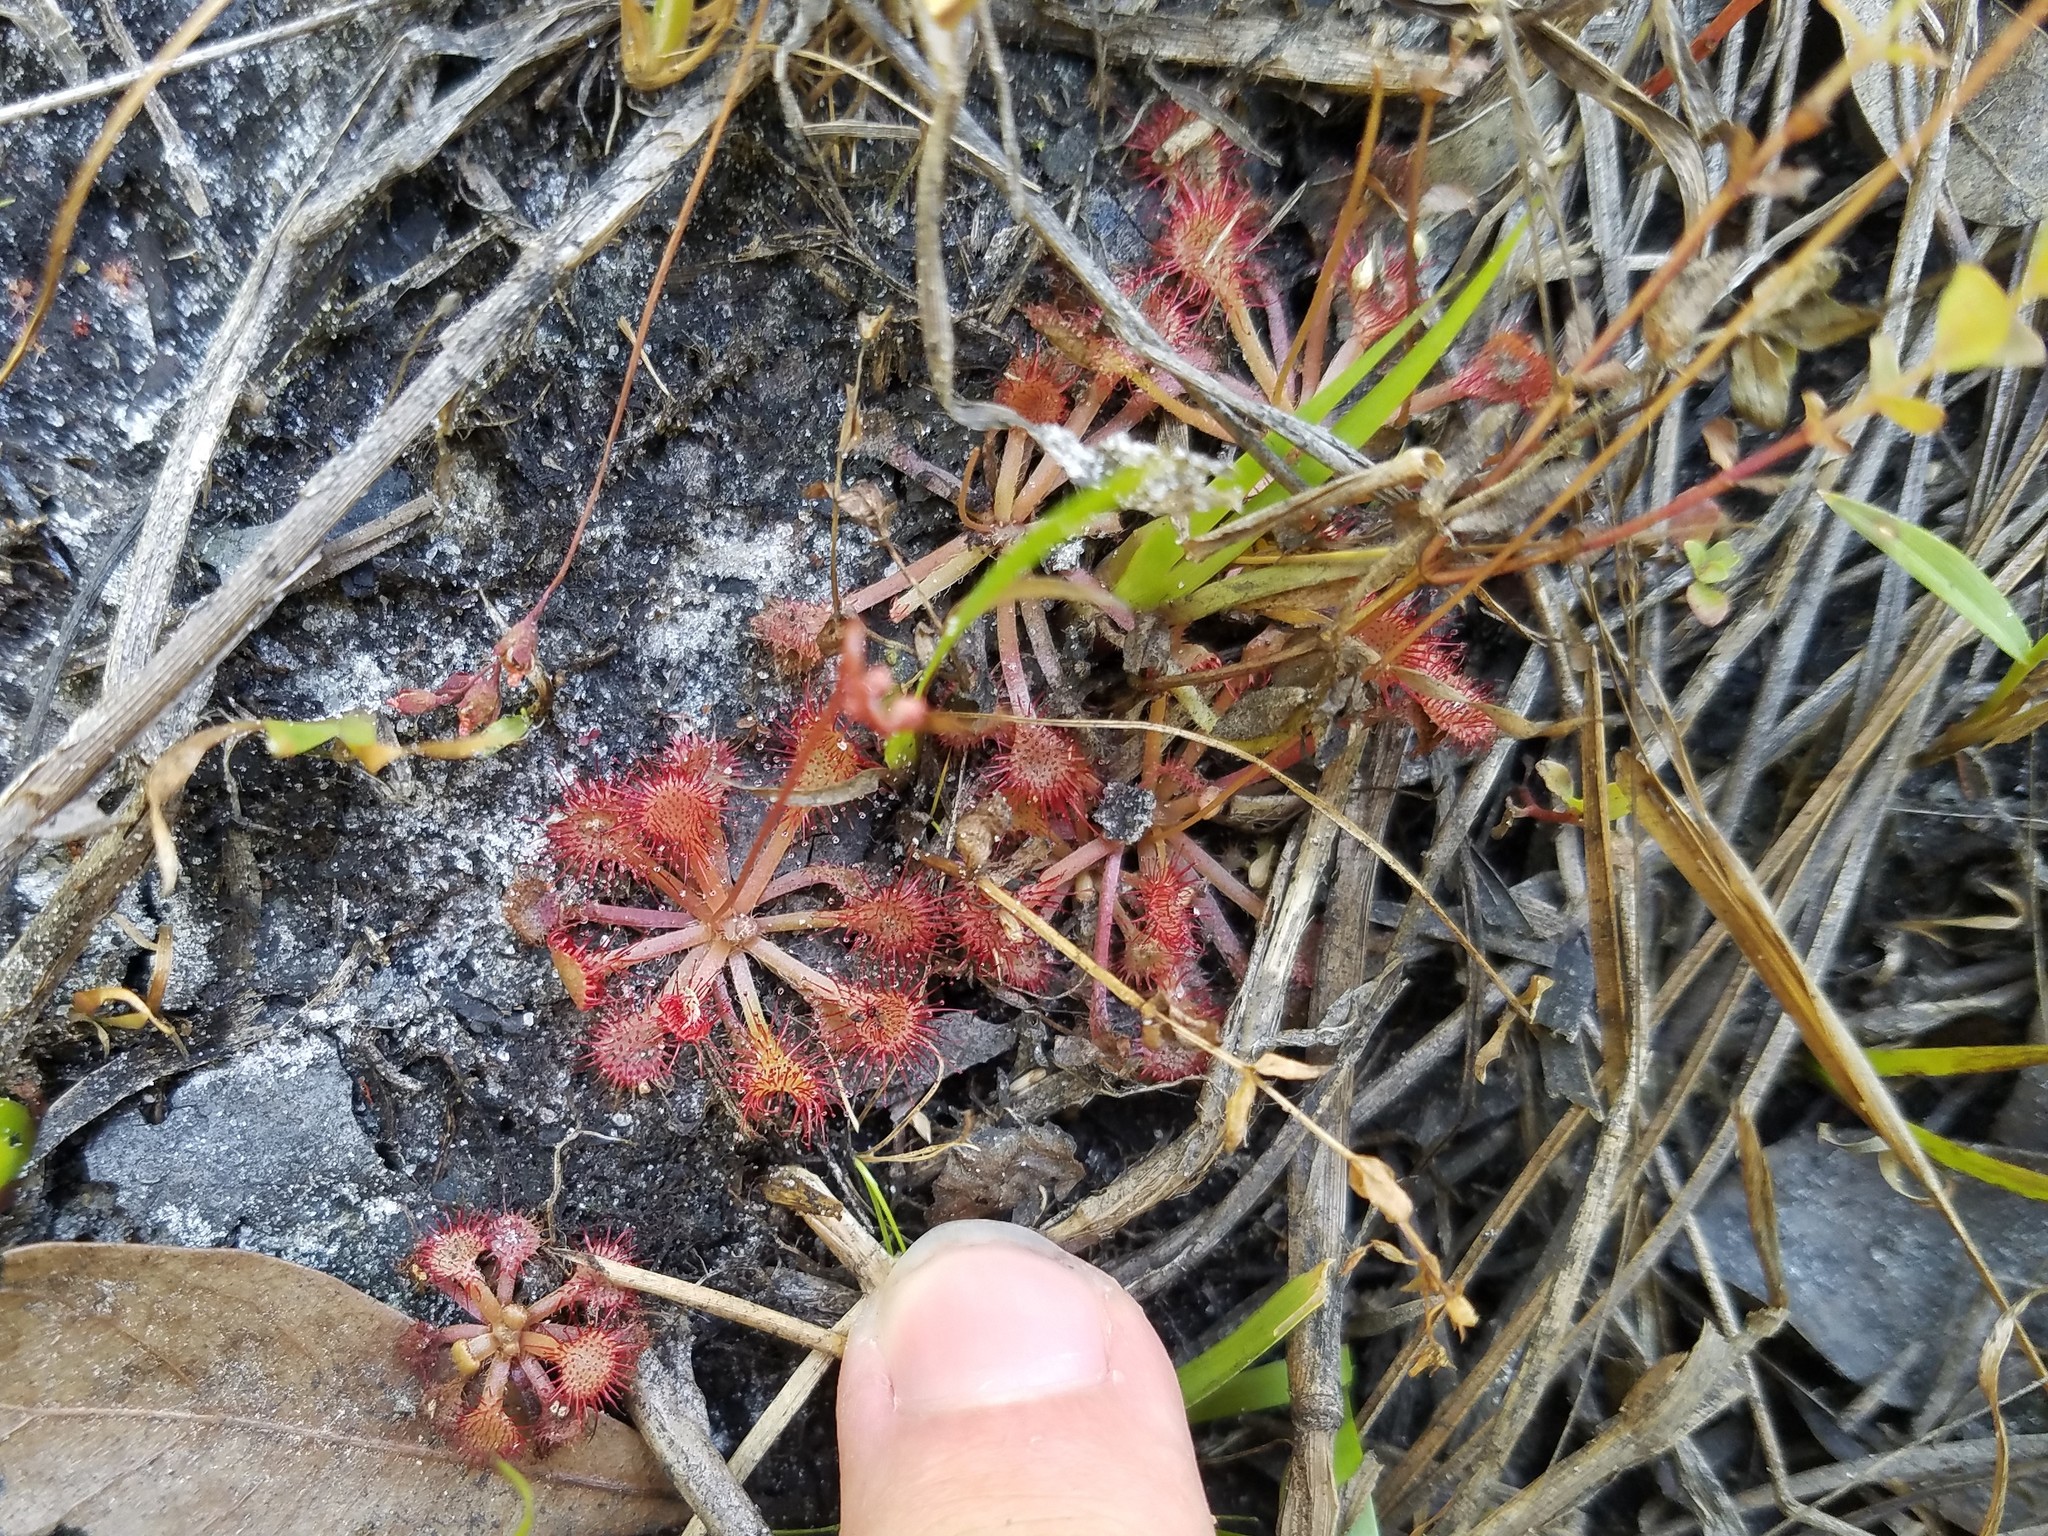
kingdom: Plantae
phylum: Tracheophyta
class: Magnoliopsida
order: Caryophyllales
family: Droseraceae
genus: Drosera
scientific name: Drosera capillaris
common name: Pink sundew
